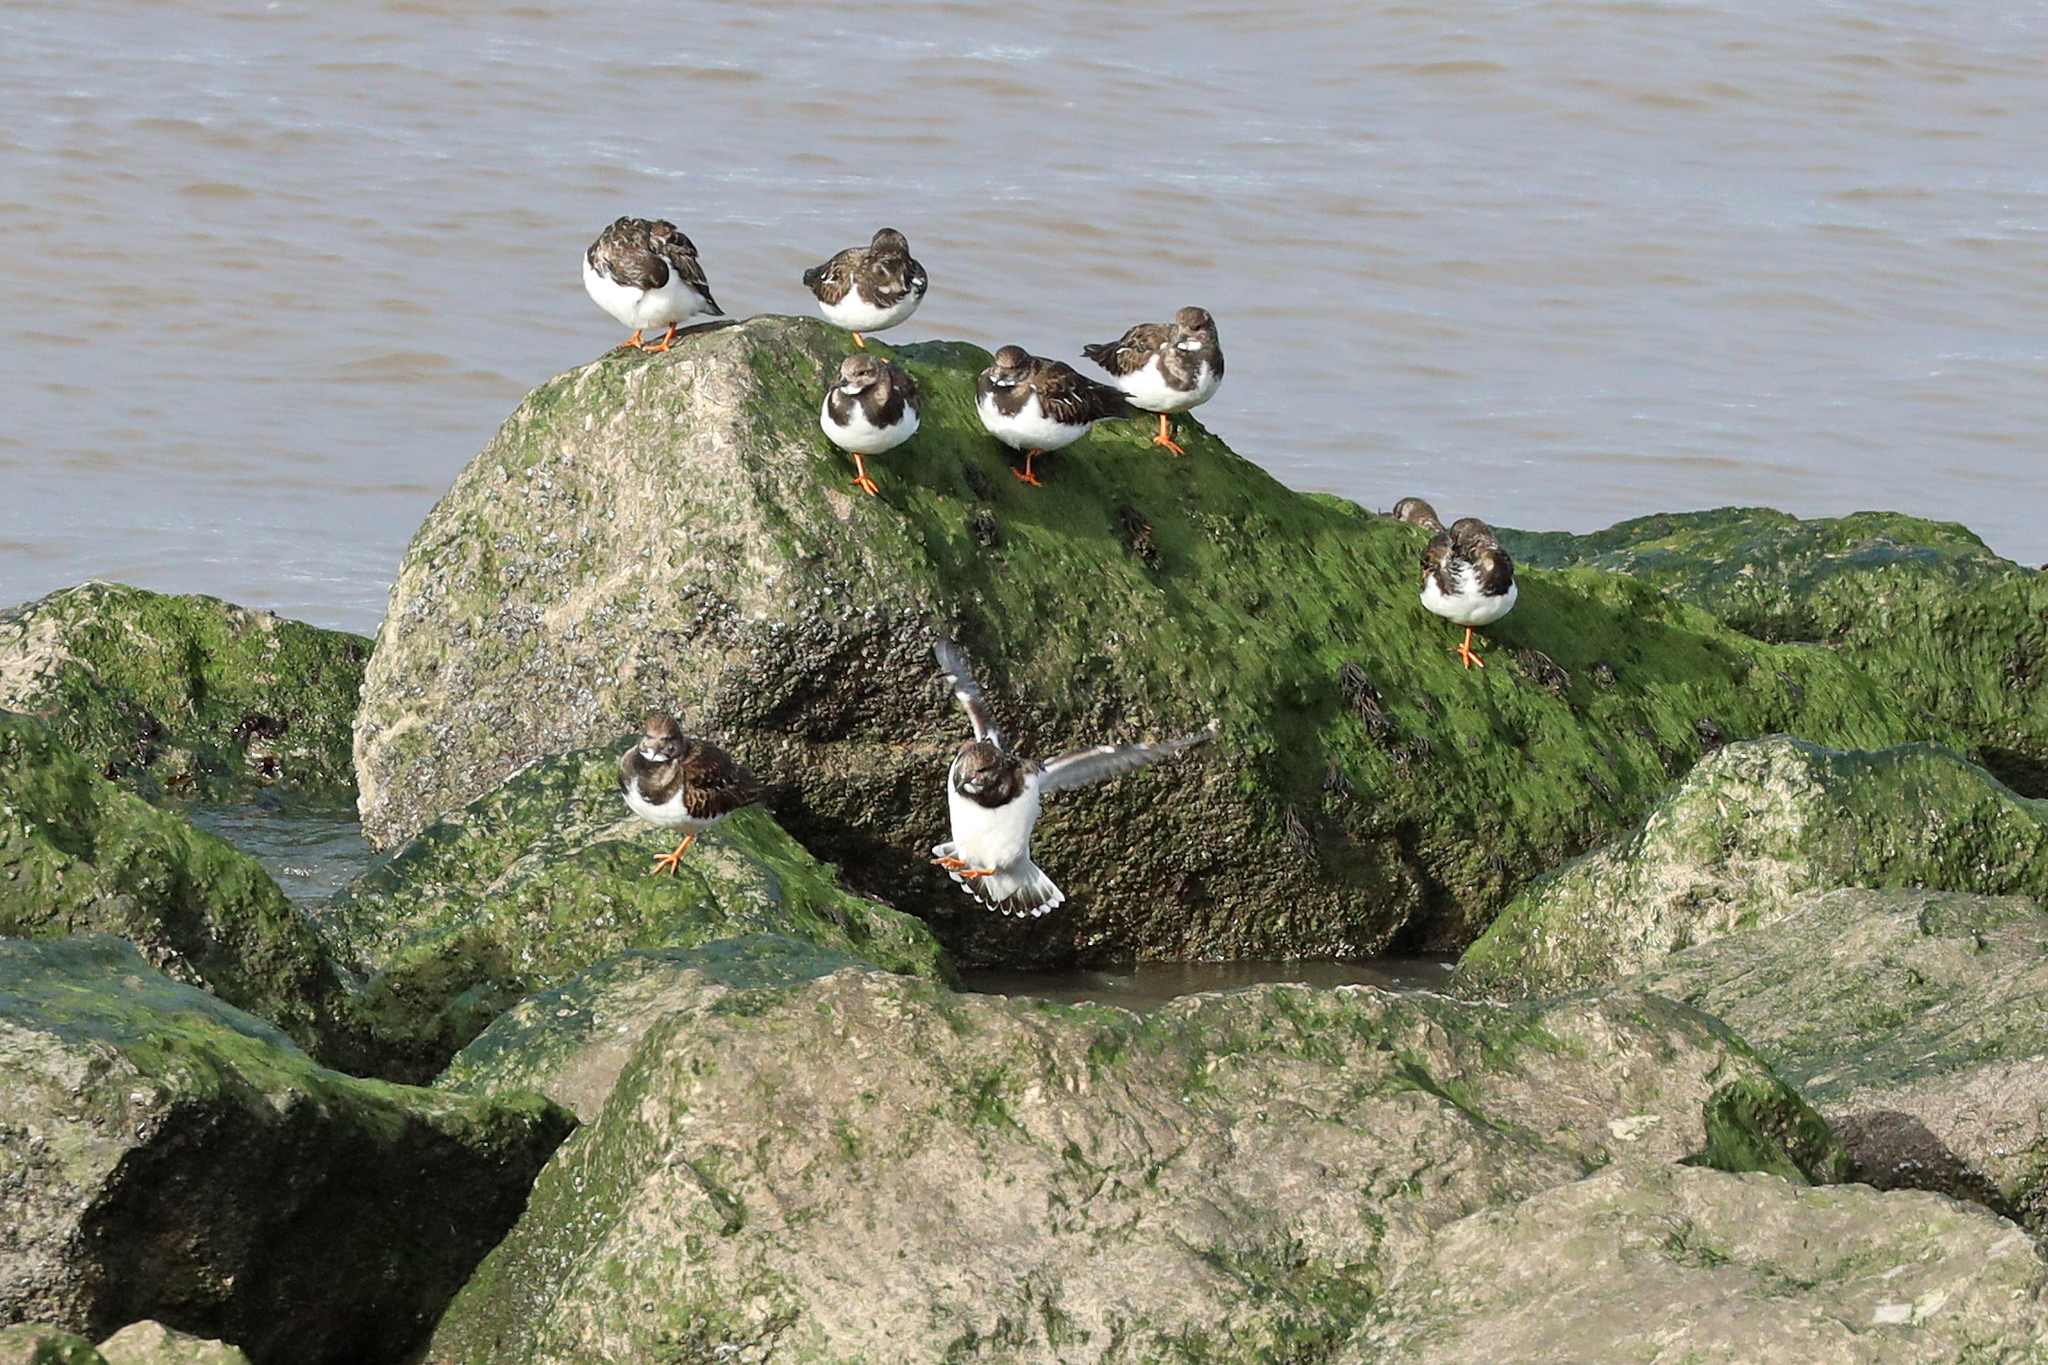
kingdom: Animalia
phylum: Chordata
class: Aves
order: Charadriiformes
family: Scolopacidae
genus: Arenaria
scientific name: Arenaria interpres
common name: Ruddy turnstone
